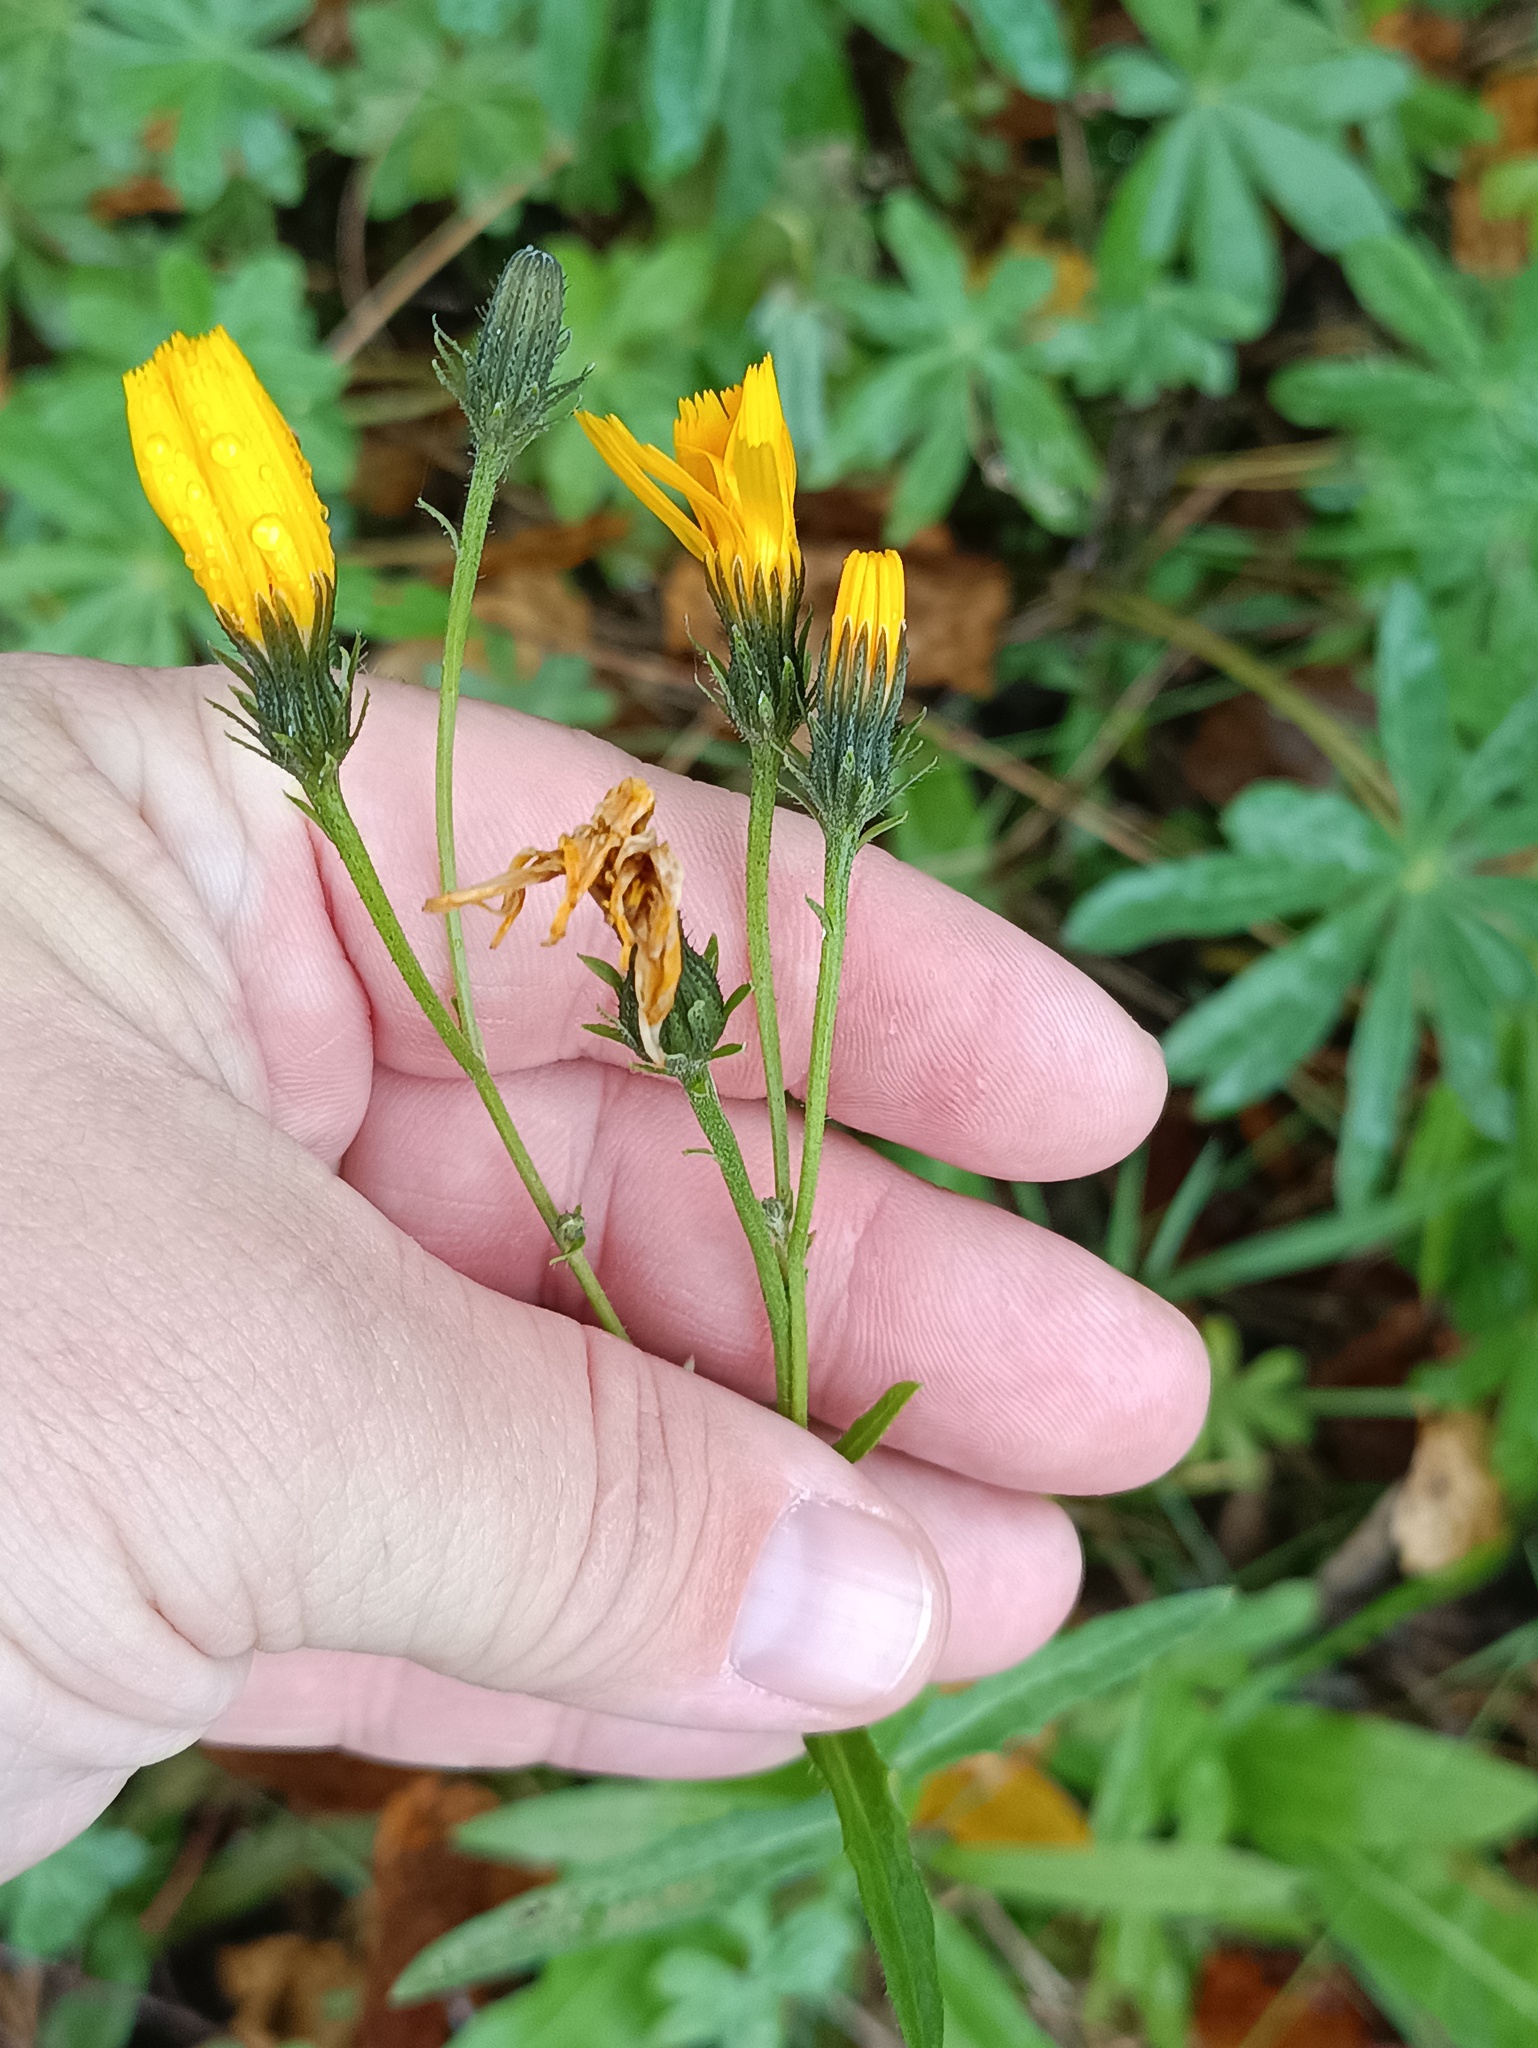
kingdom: Plantae
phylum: Tracheophyta
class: Magnoliopsida
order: Asterales
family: Asteraceae
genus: Picris
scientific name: Picris hieracioides
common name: Hawkweed oxtongue
